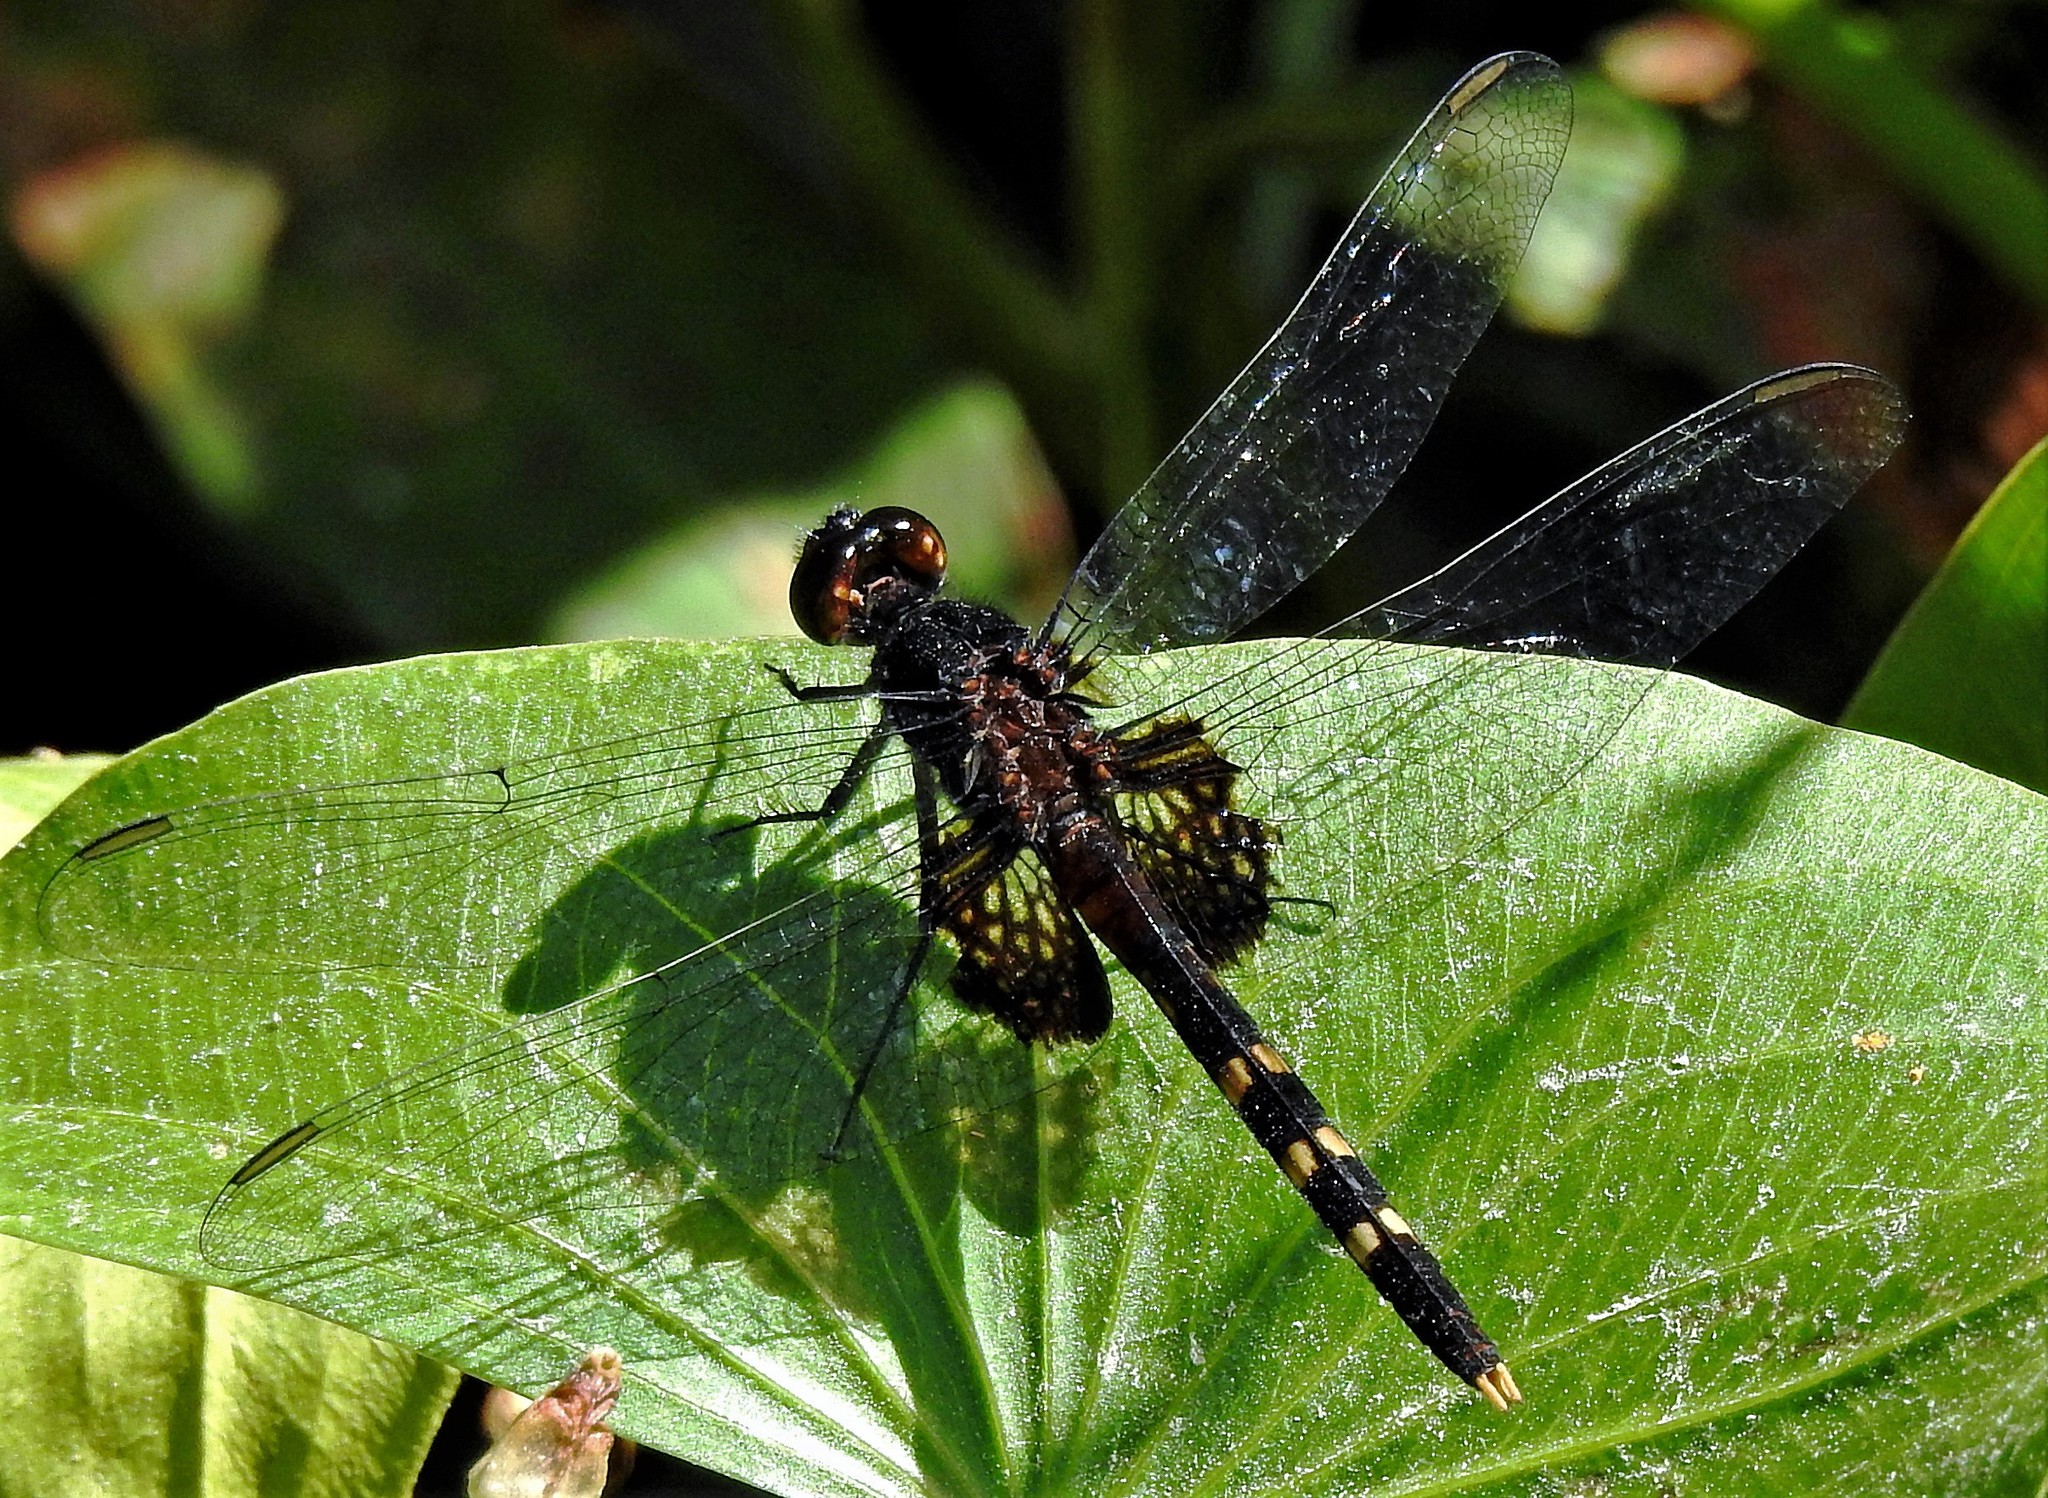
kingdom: Animalia
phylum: Arthropoda
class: Insecta
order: Odonata
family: Libellulidae
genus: Erythemis
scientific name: Erythemis attala
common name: Black pondhawk
